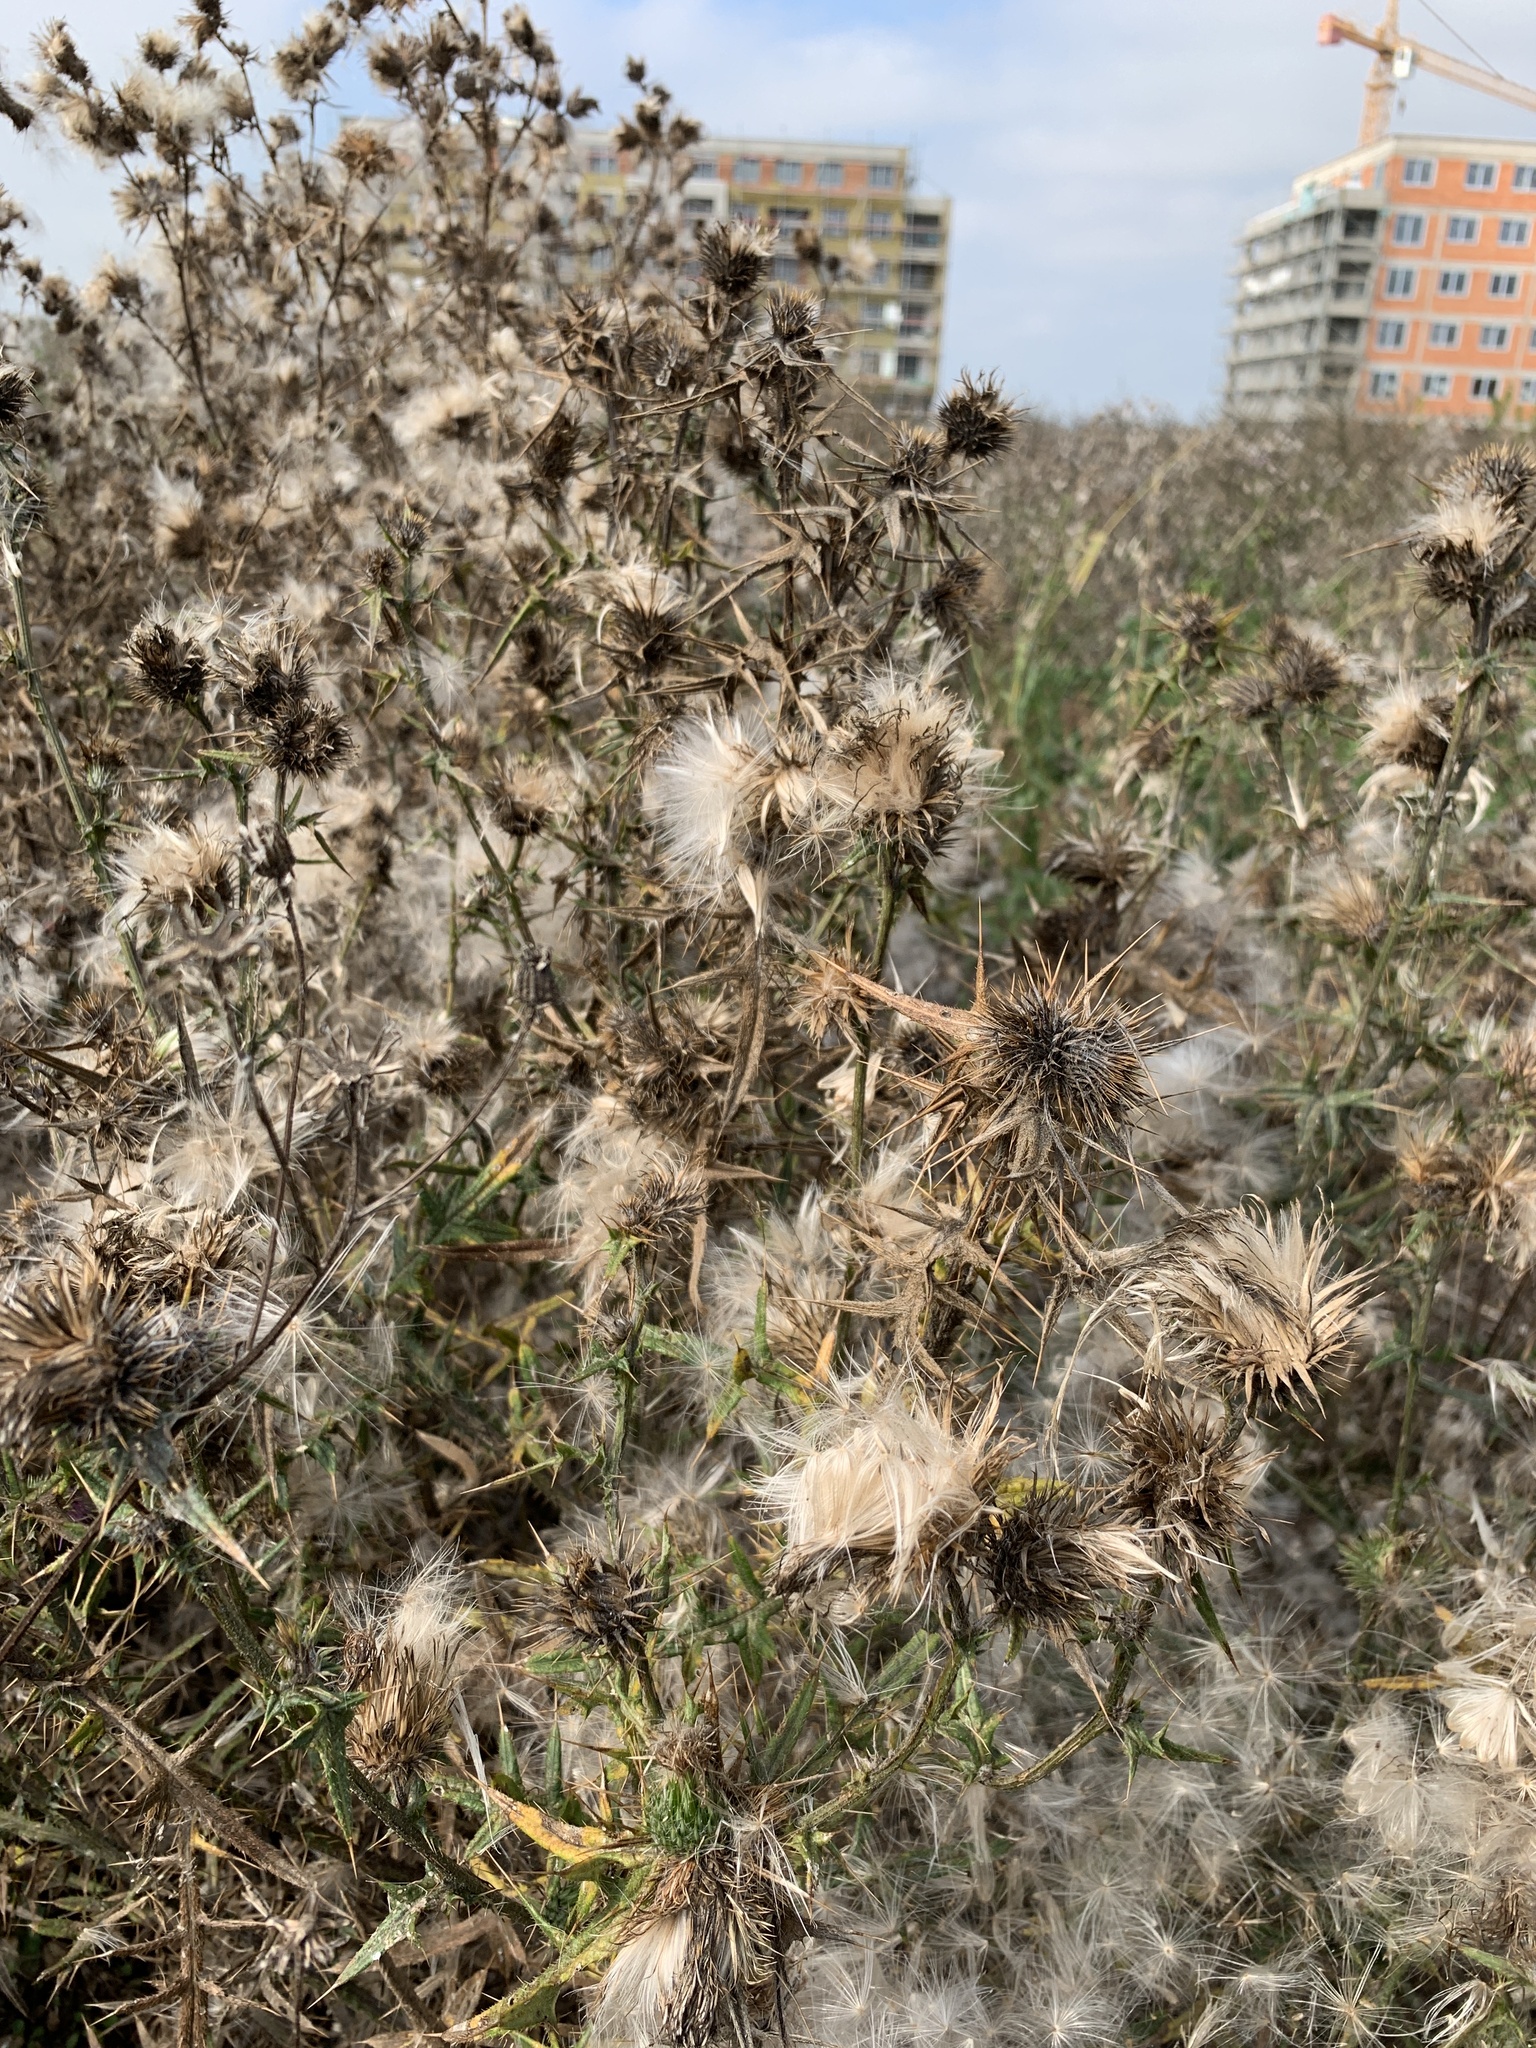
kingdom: Plantae
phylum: Tracheophyta
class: Magnoliopsida
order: Asterales
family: Asteraceae
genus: Cirsium
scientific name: Cirsium vulgare
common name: Bull thistle
